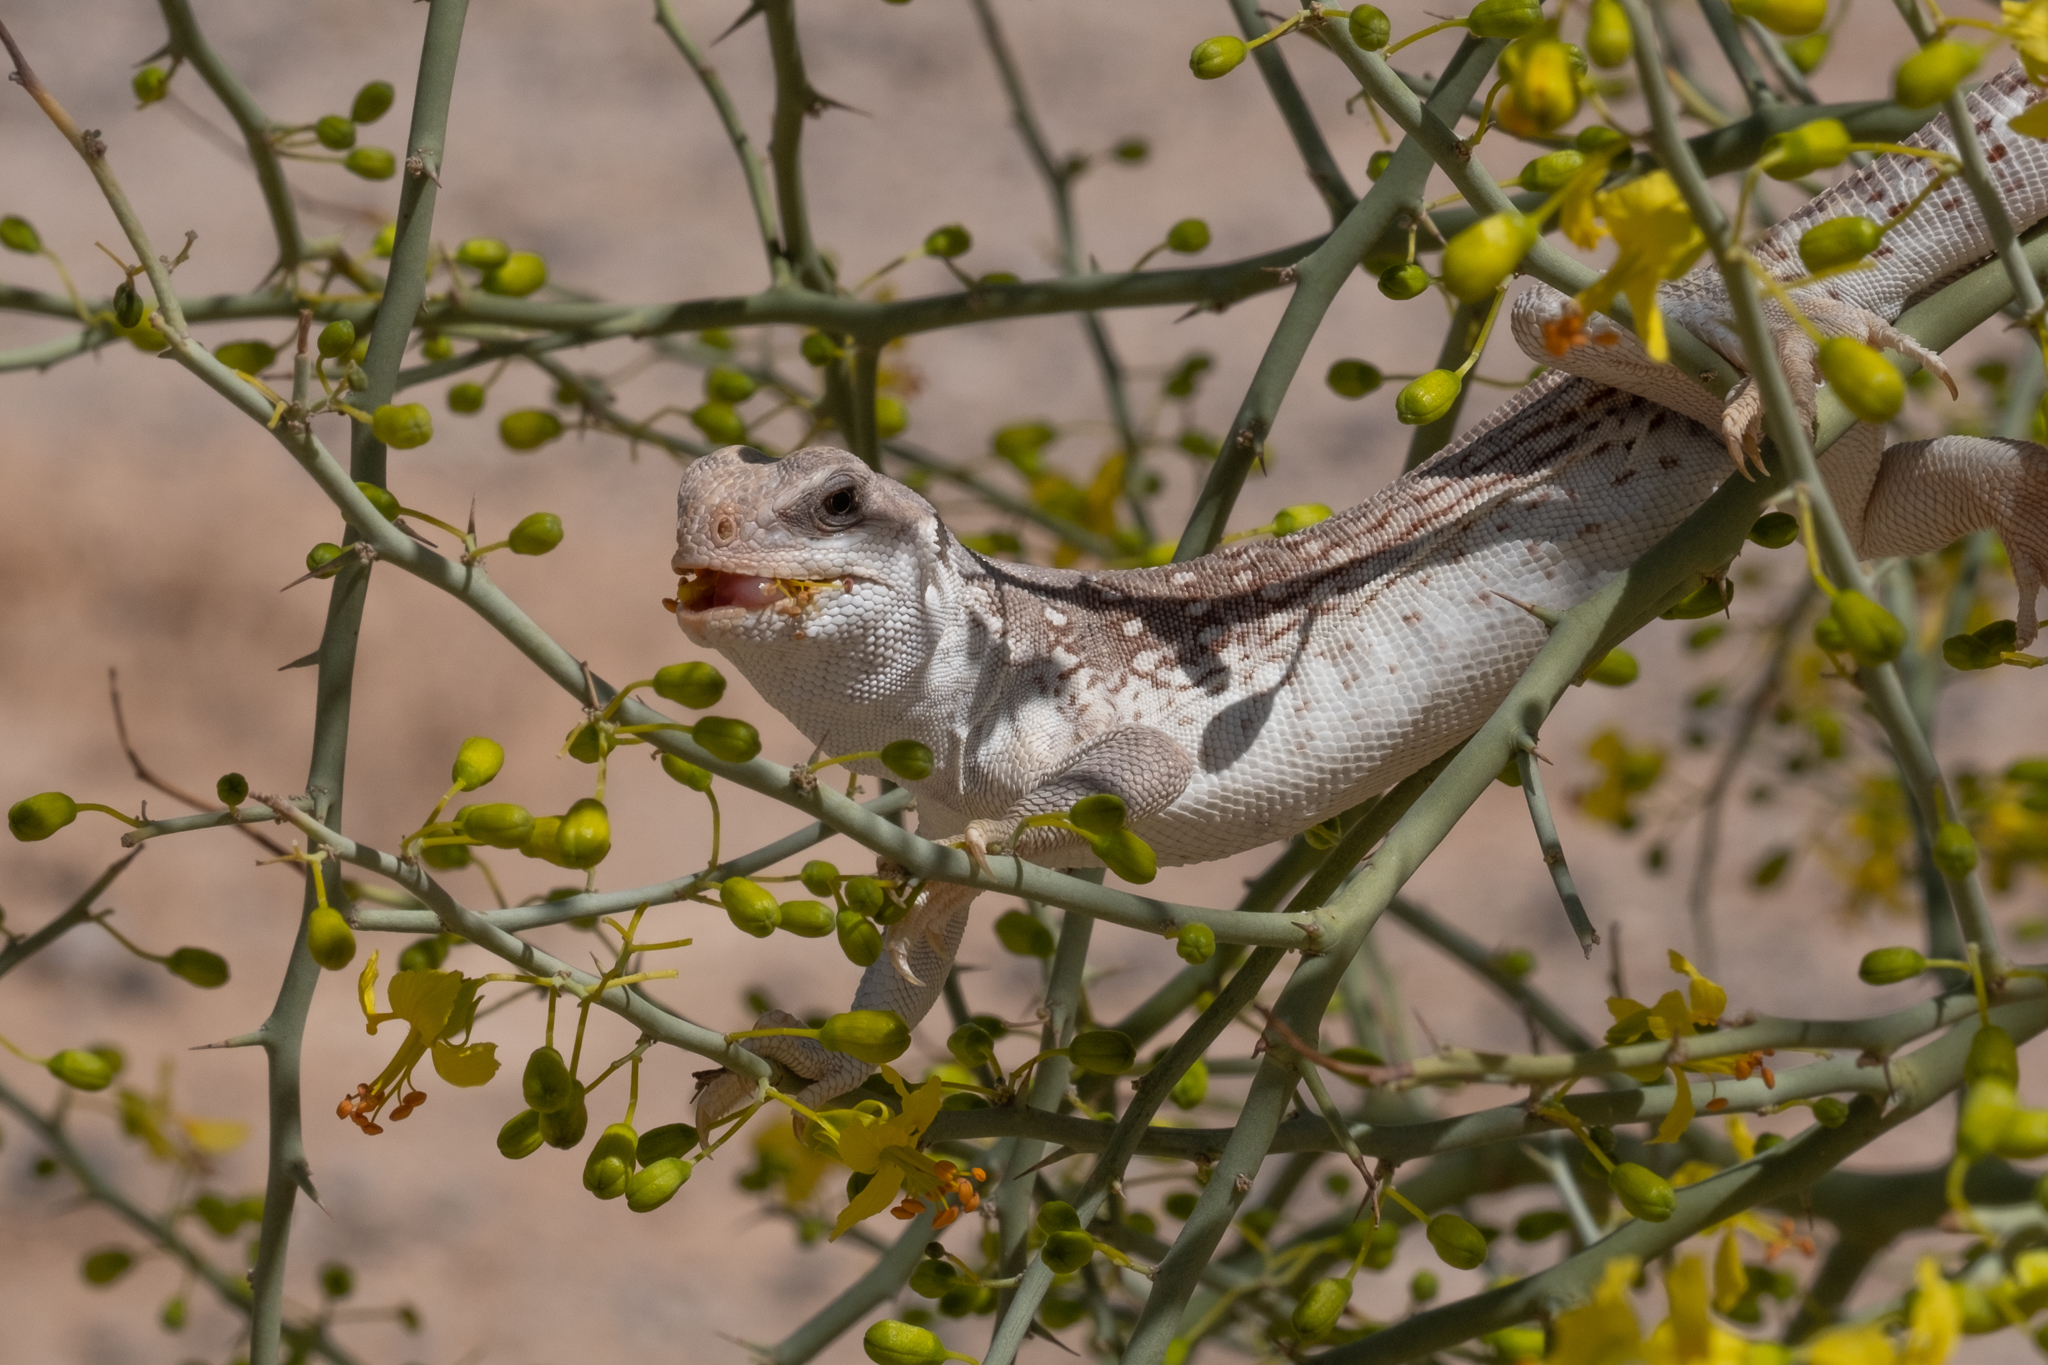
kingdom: Animalia
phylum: Chordata
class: Squamata
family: Iguanidae
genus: Dipsosaurus
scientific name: Dipsosaurus dorsalis
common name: Desert iguana
